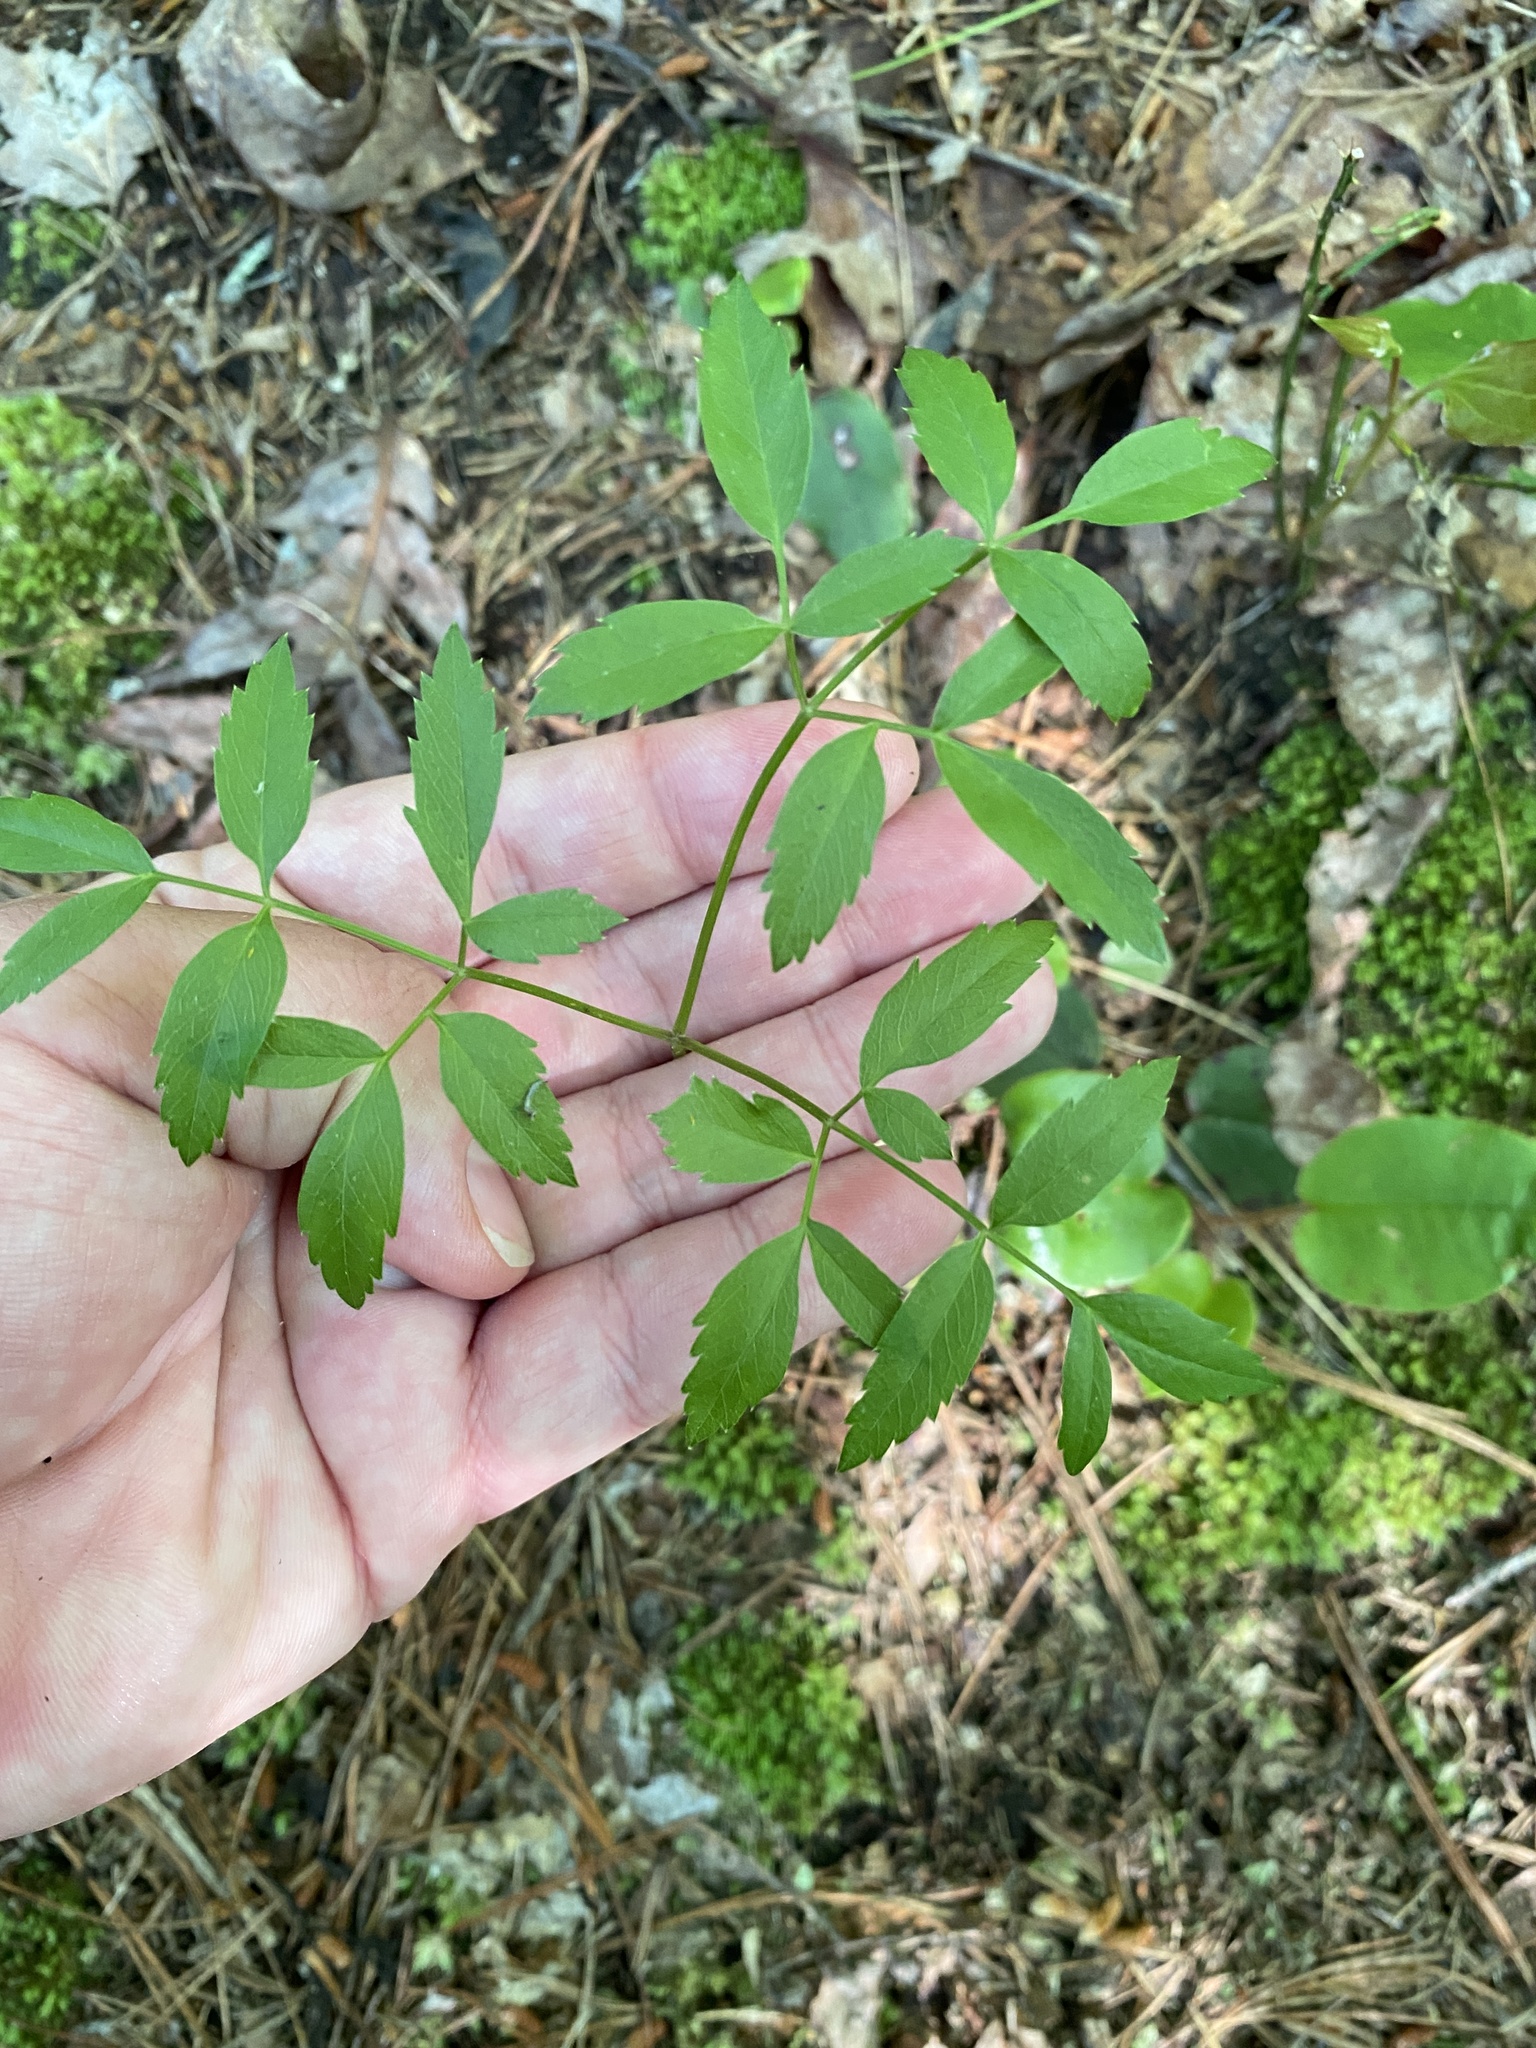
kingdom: Plantae
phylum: Tracheophyta
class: Magnoliopsida
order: Apiales
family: Apiaceae
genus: Ligusticum
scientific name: Ligusticum canadense
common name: American lovage
